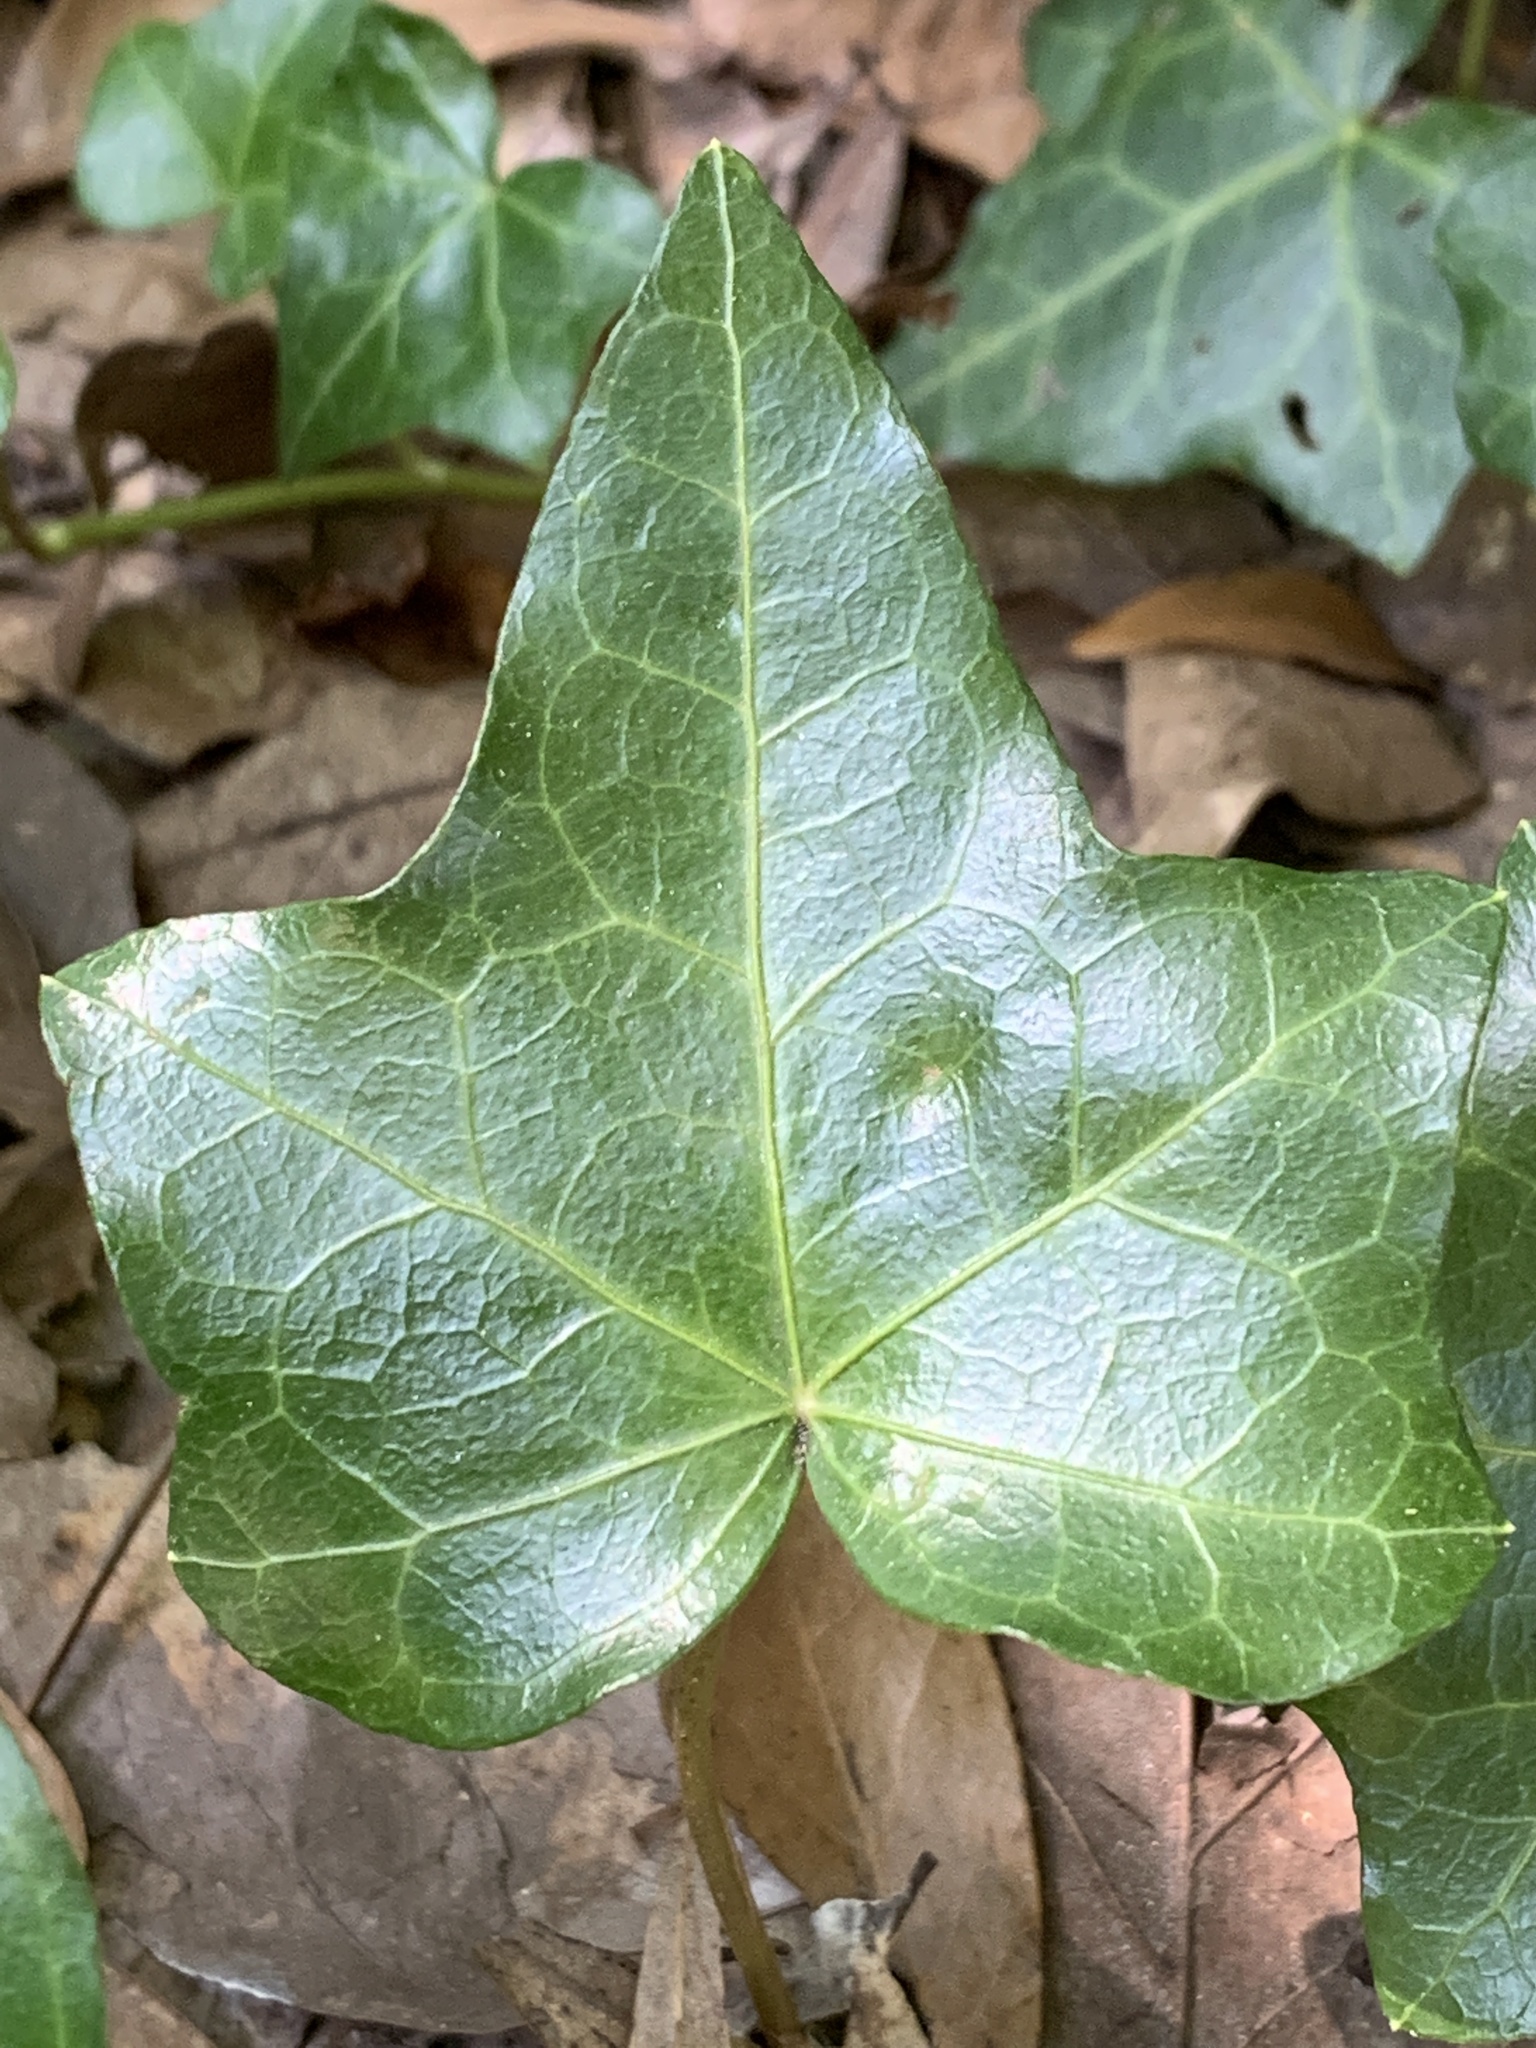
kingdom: Plantae
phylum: Tracheophyta
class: Magnoliopsida
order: Apiales
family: Araliaceae
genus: Hedera
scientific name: Hedera helix
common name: Ivy
